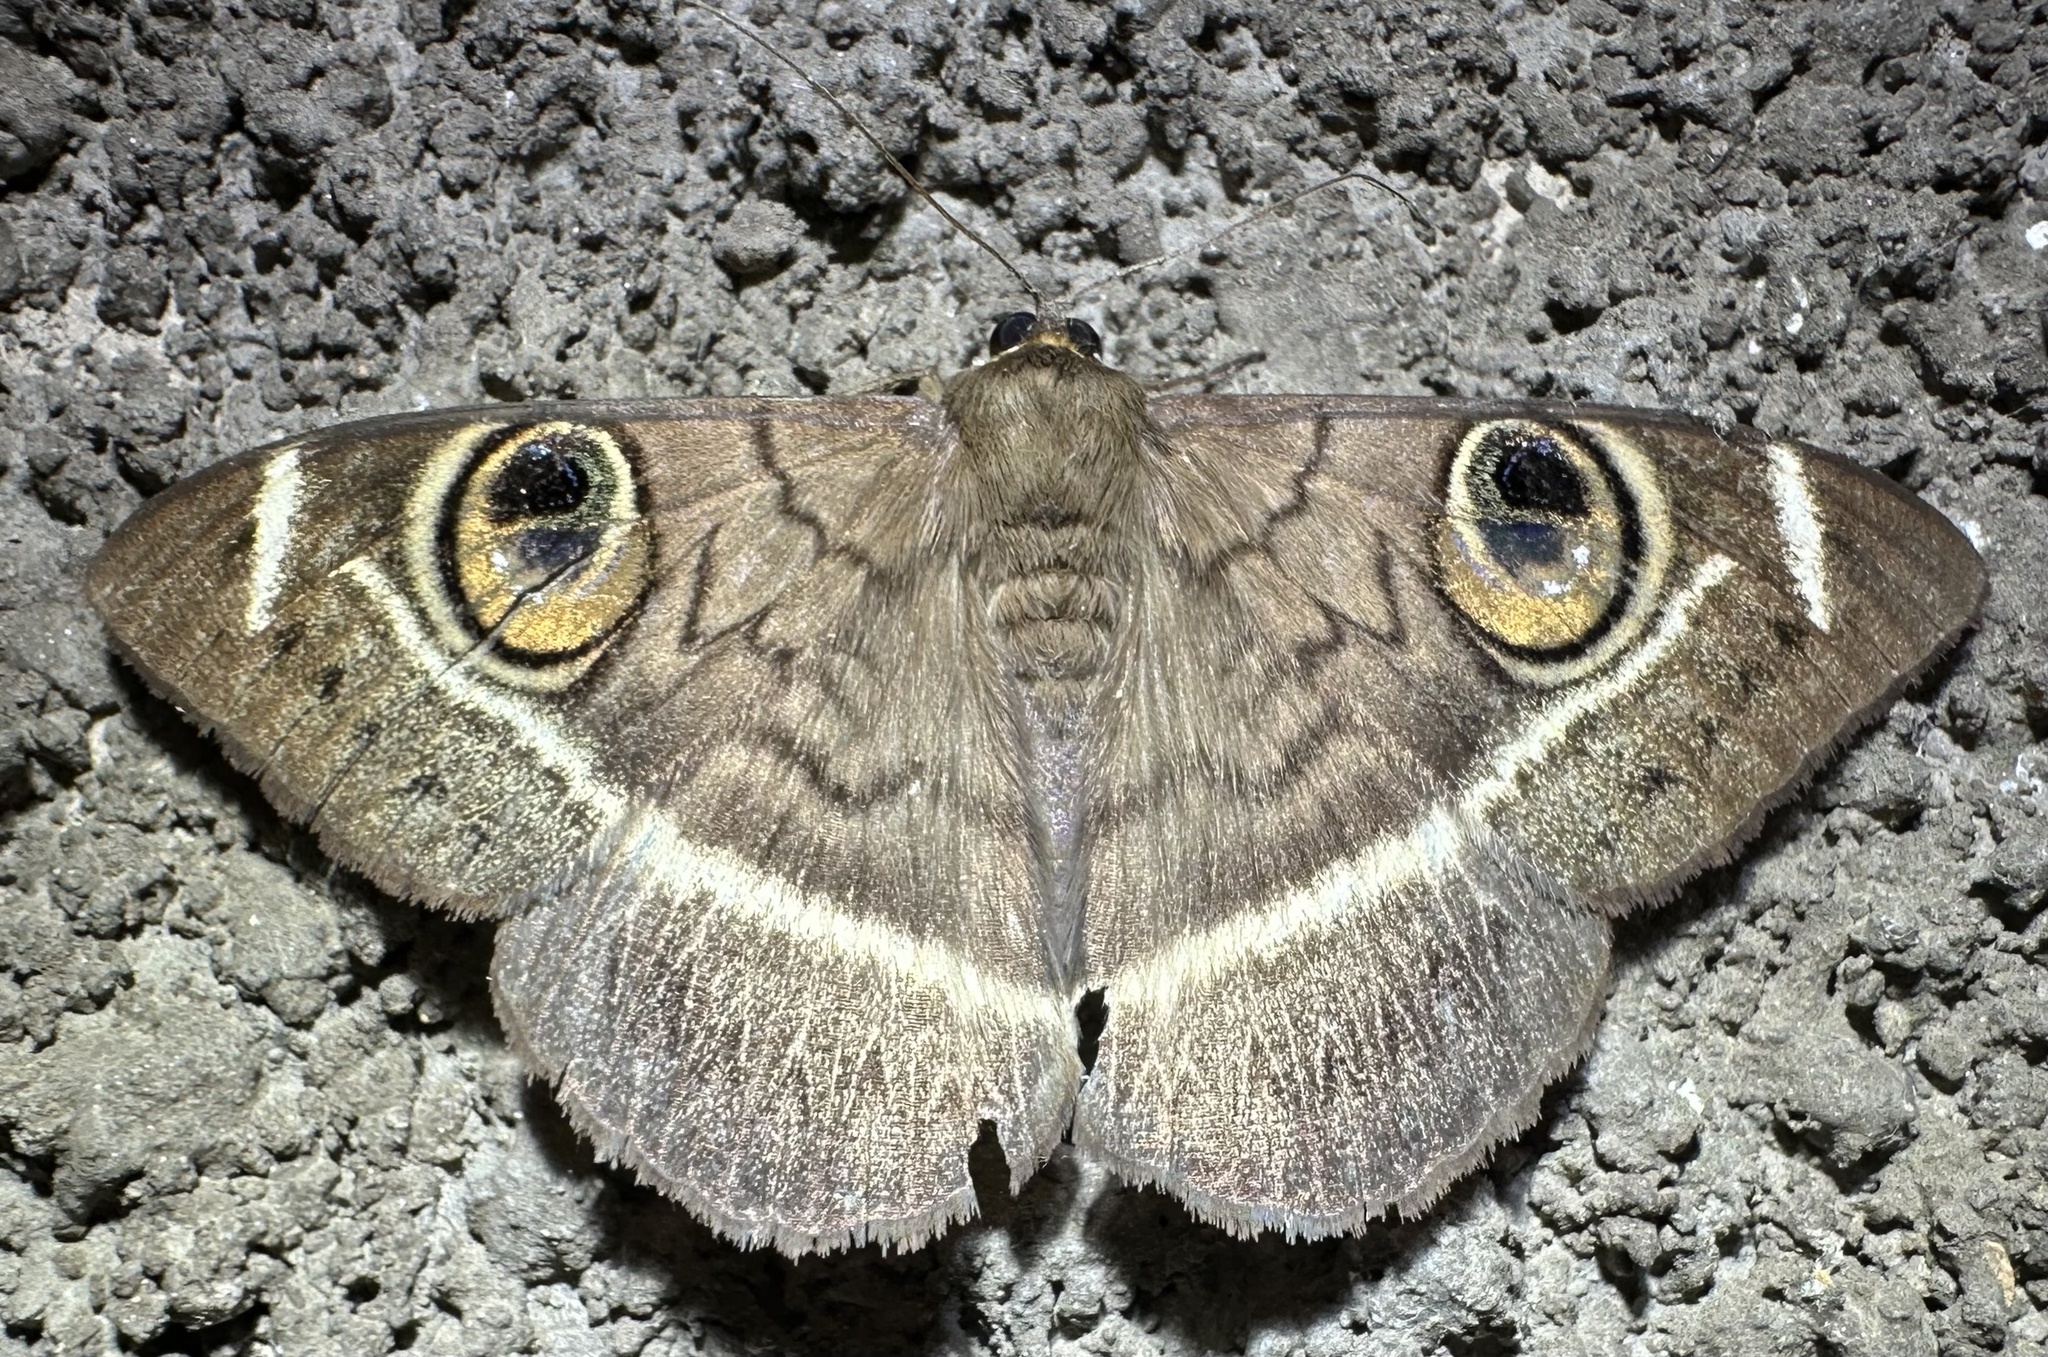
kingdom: Animalia
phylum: Arthropoda
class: Insecta
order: Lepidoptera
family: Erebidae
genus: Cyligramma
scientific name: Cyligramma latona
